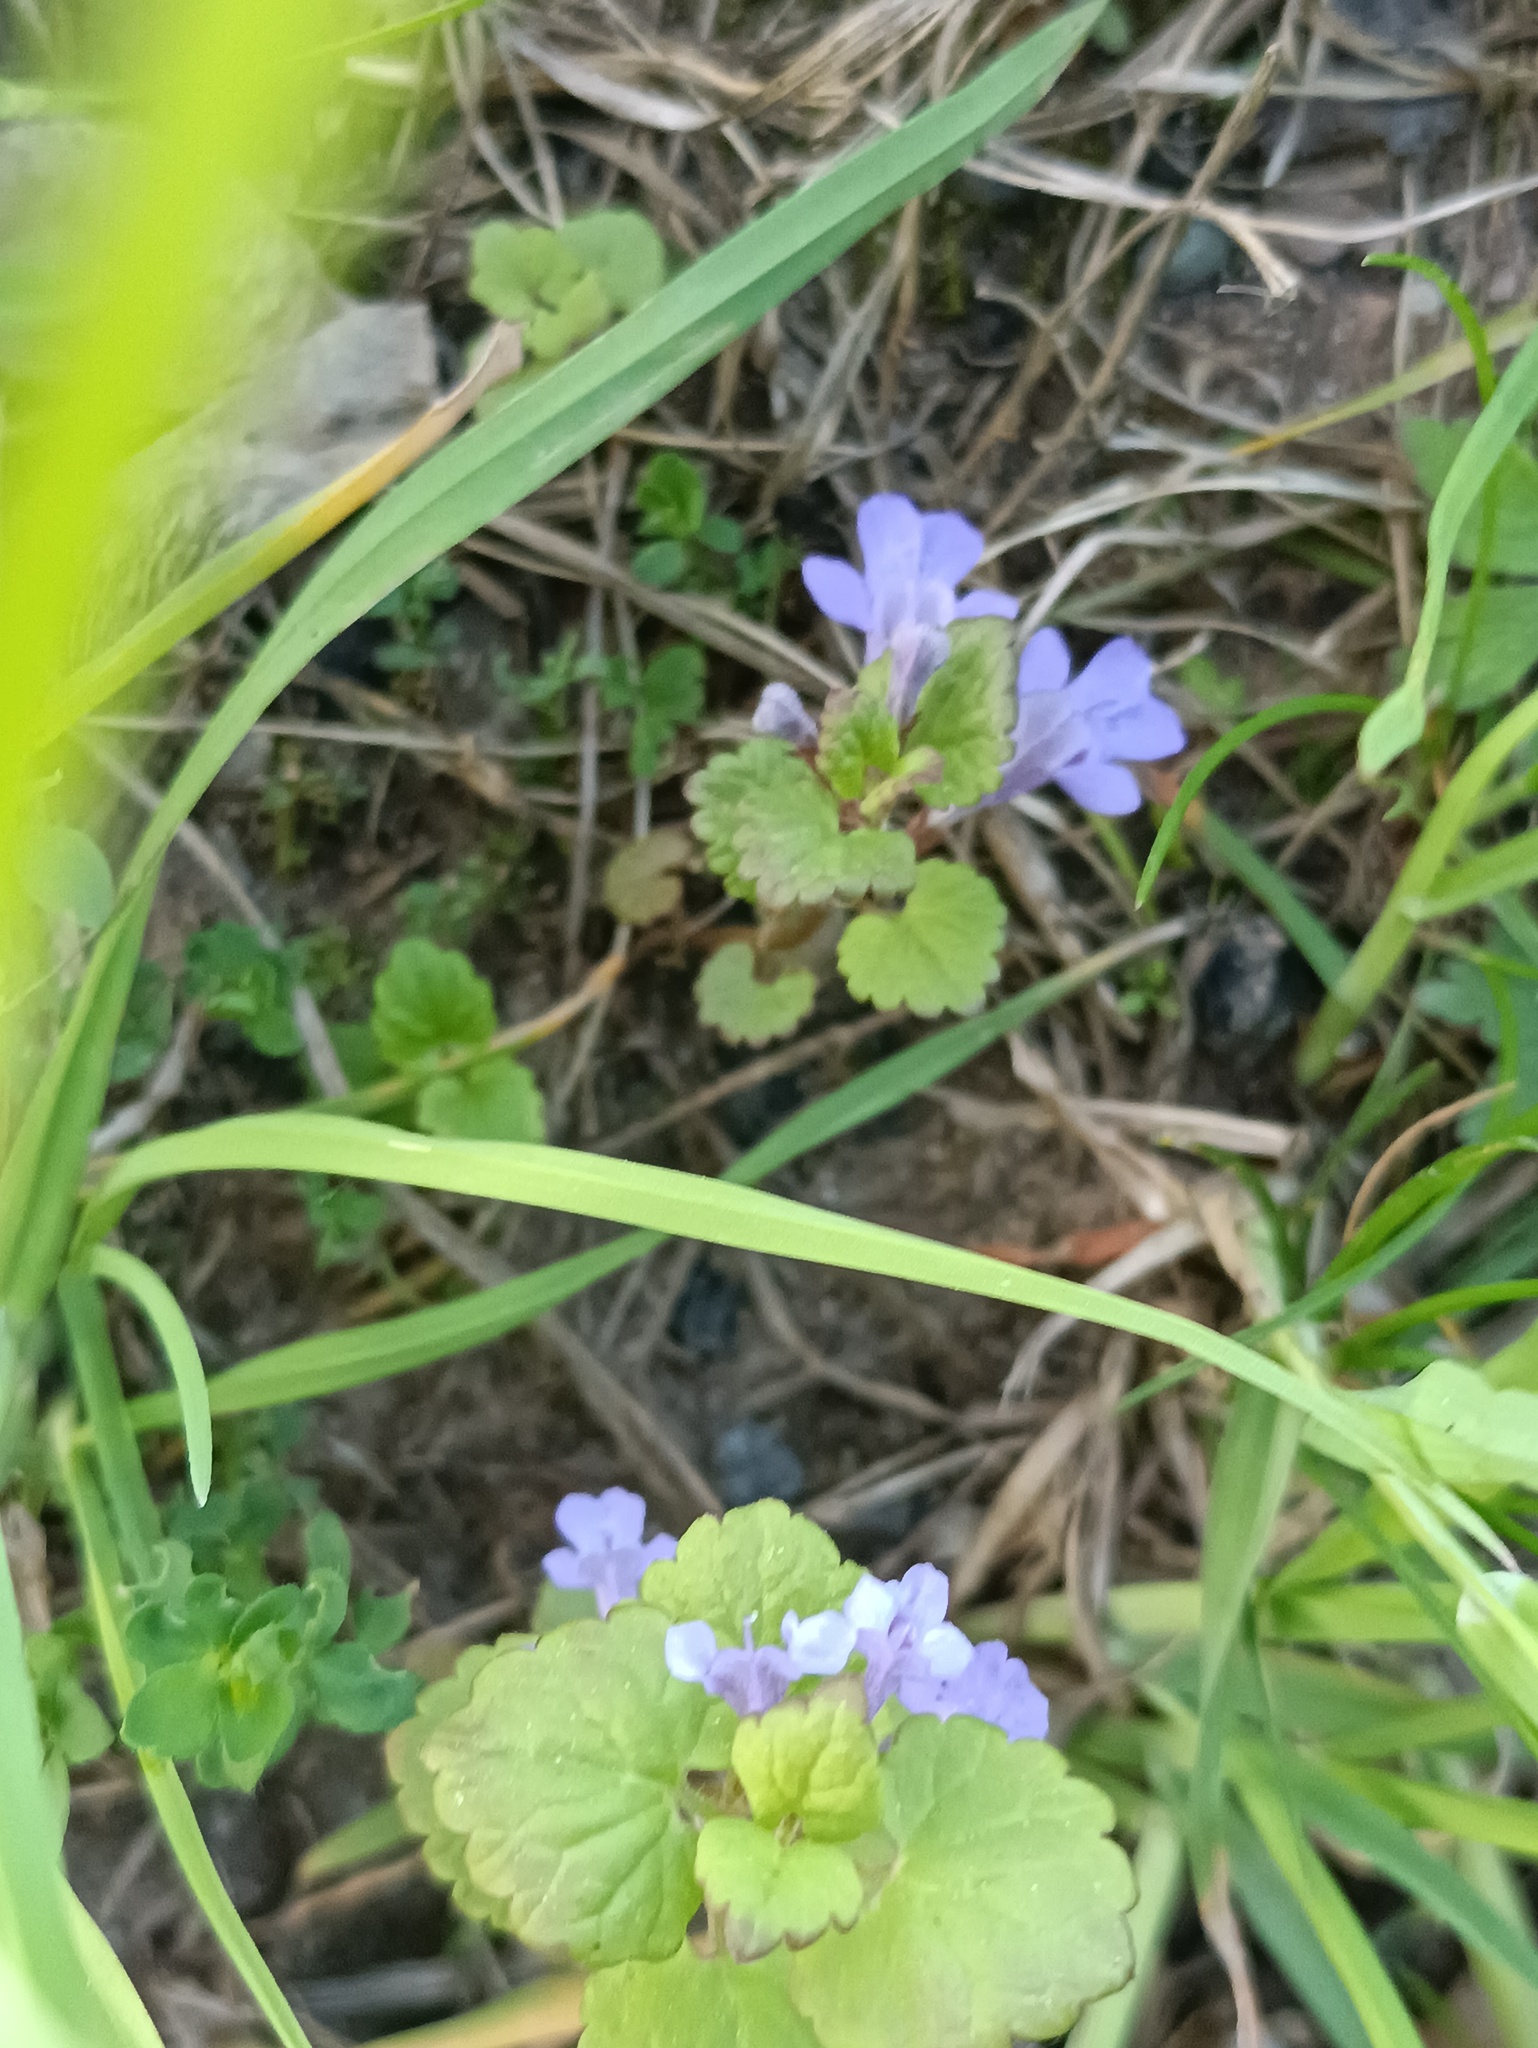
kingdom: Plantae
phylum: Tracheophyta
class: Magnoliopsida
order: Lamiales
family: Lamiaceae
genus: Glechoma
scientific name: Glechoma hederacea
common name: Ground ivy
